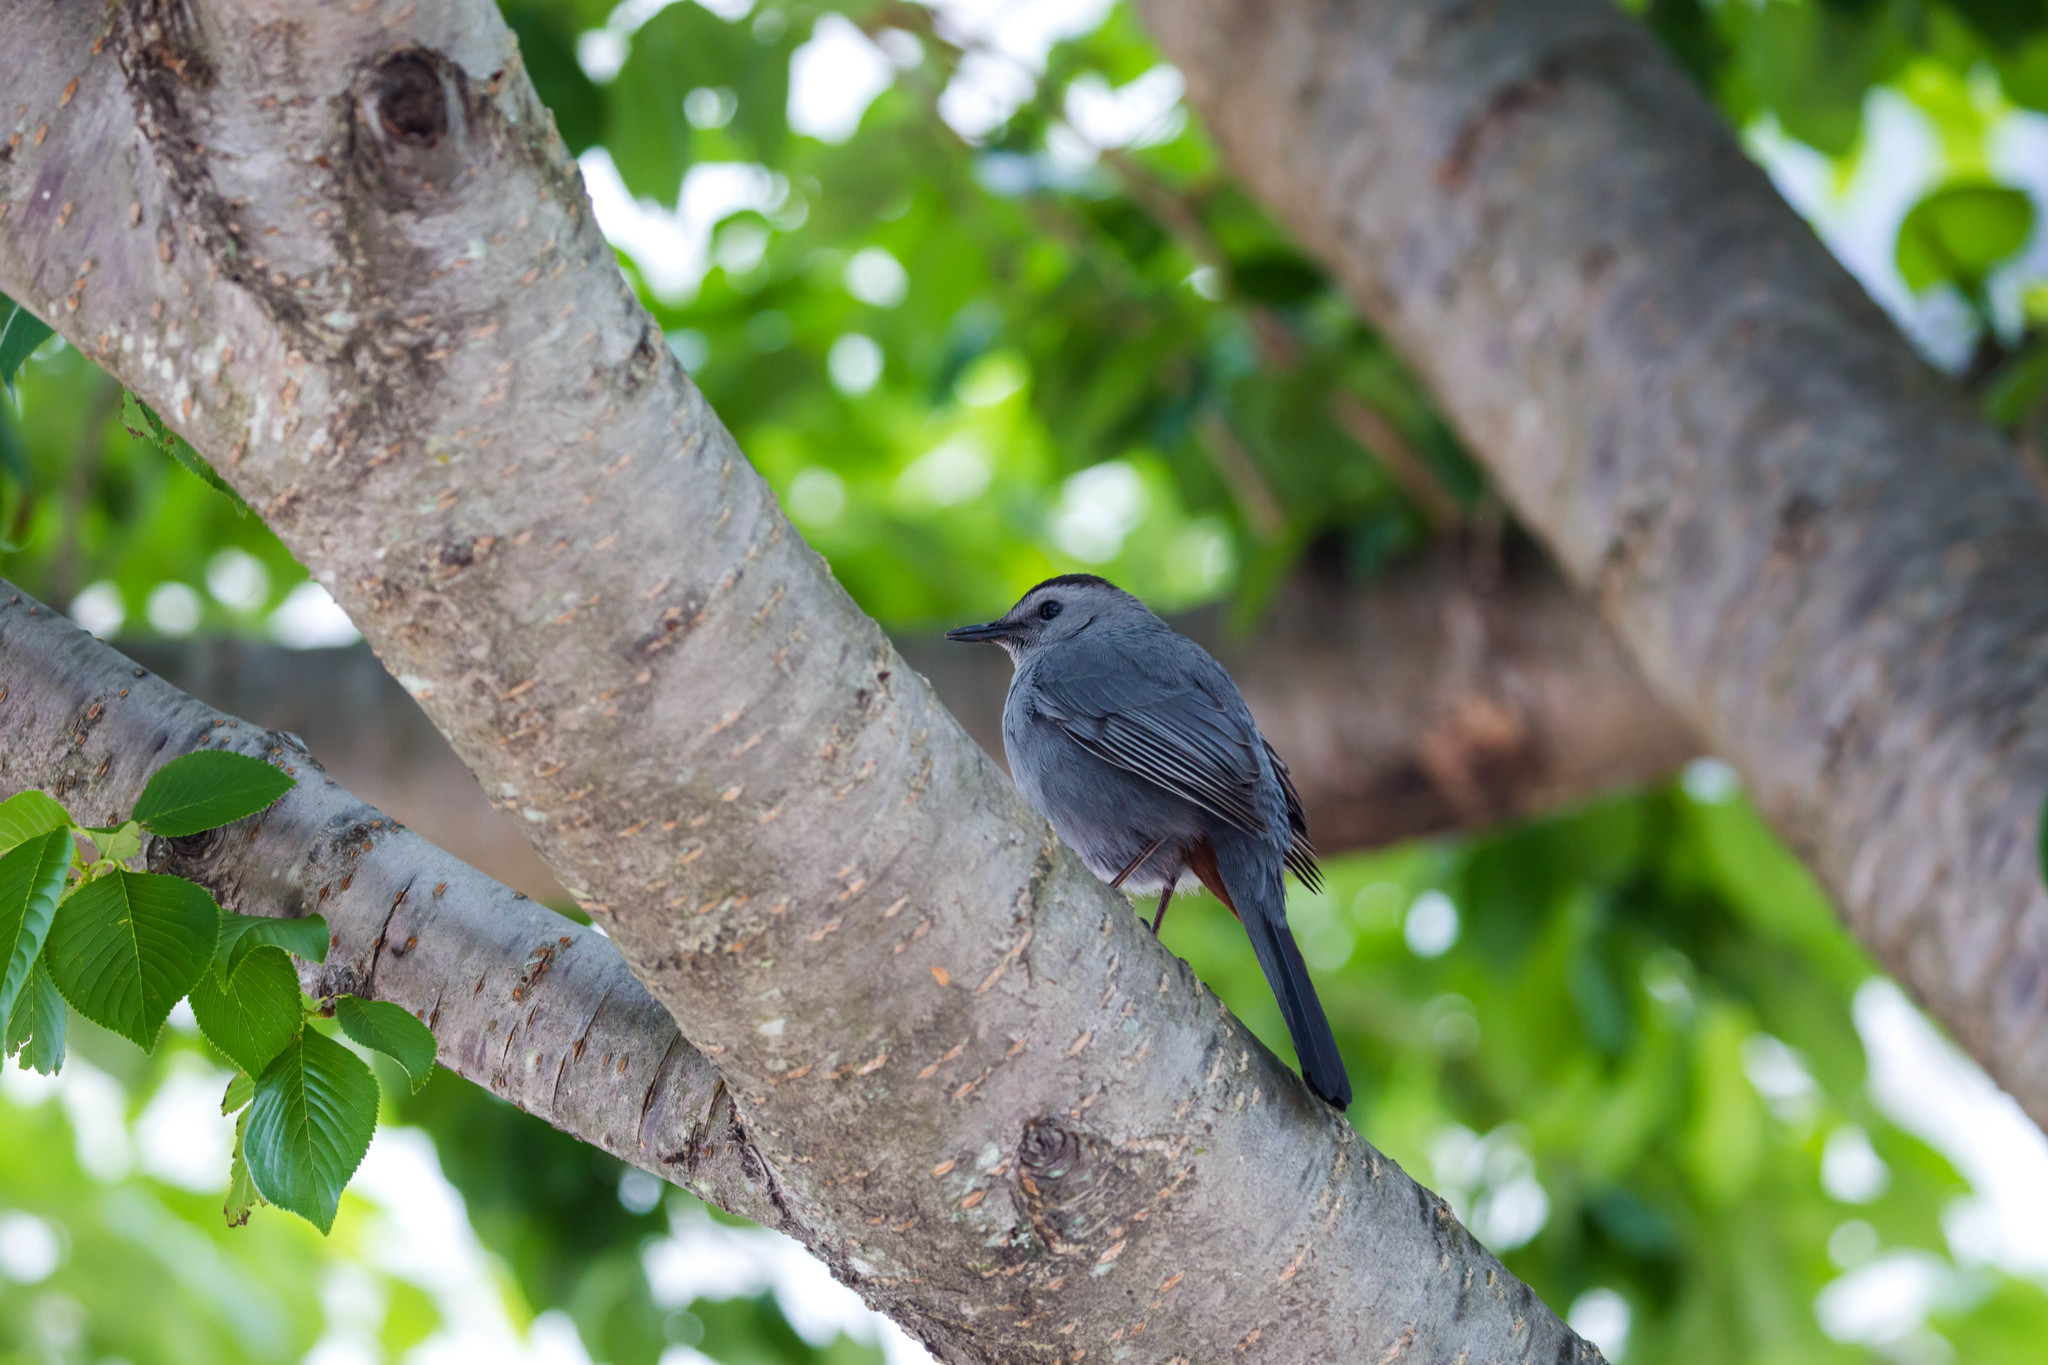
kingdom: Animalia
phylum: Chordata
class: Aves
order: Passeriformes
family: Mimidae
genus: Dumetella
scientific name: Dumetella carolinensis
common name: Gray catbird
